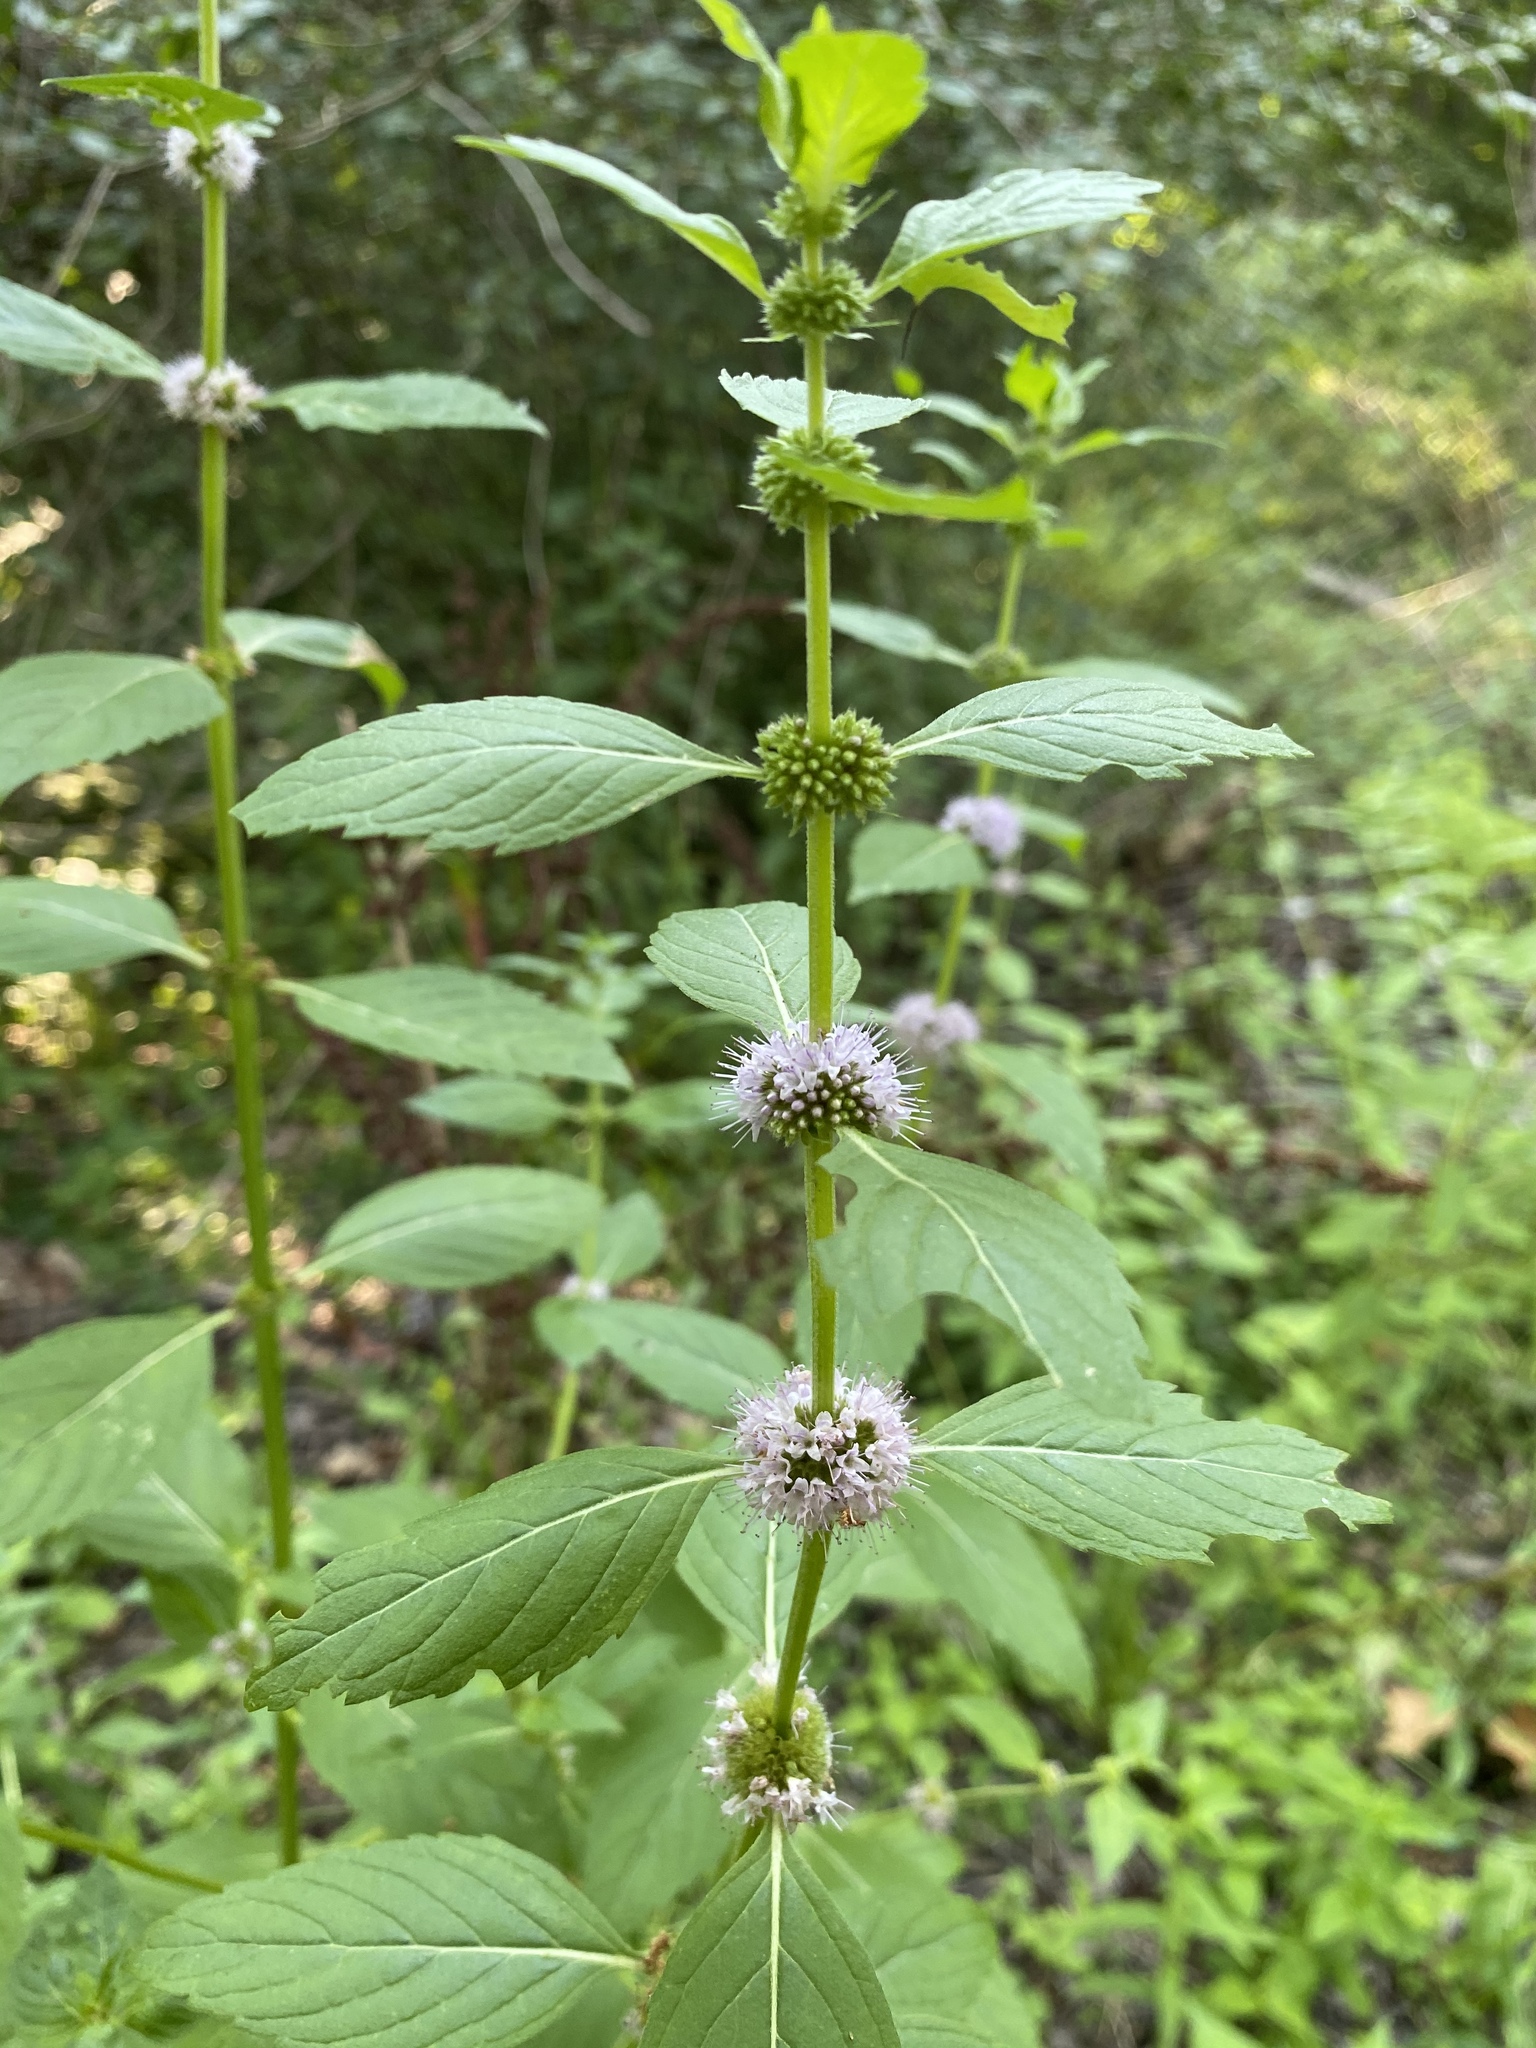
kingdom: Plantae
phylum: Tracheophyta
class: Magnoliopsida
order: Lamiales
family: Lamiaceae
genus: Mentha
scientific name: Mentha canadensis
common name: American corn mint
